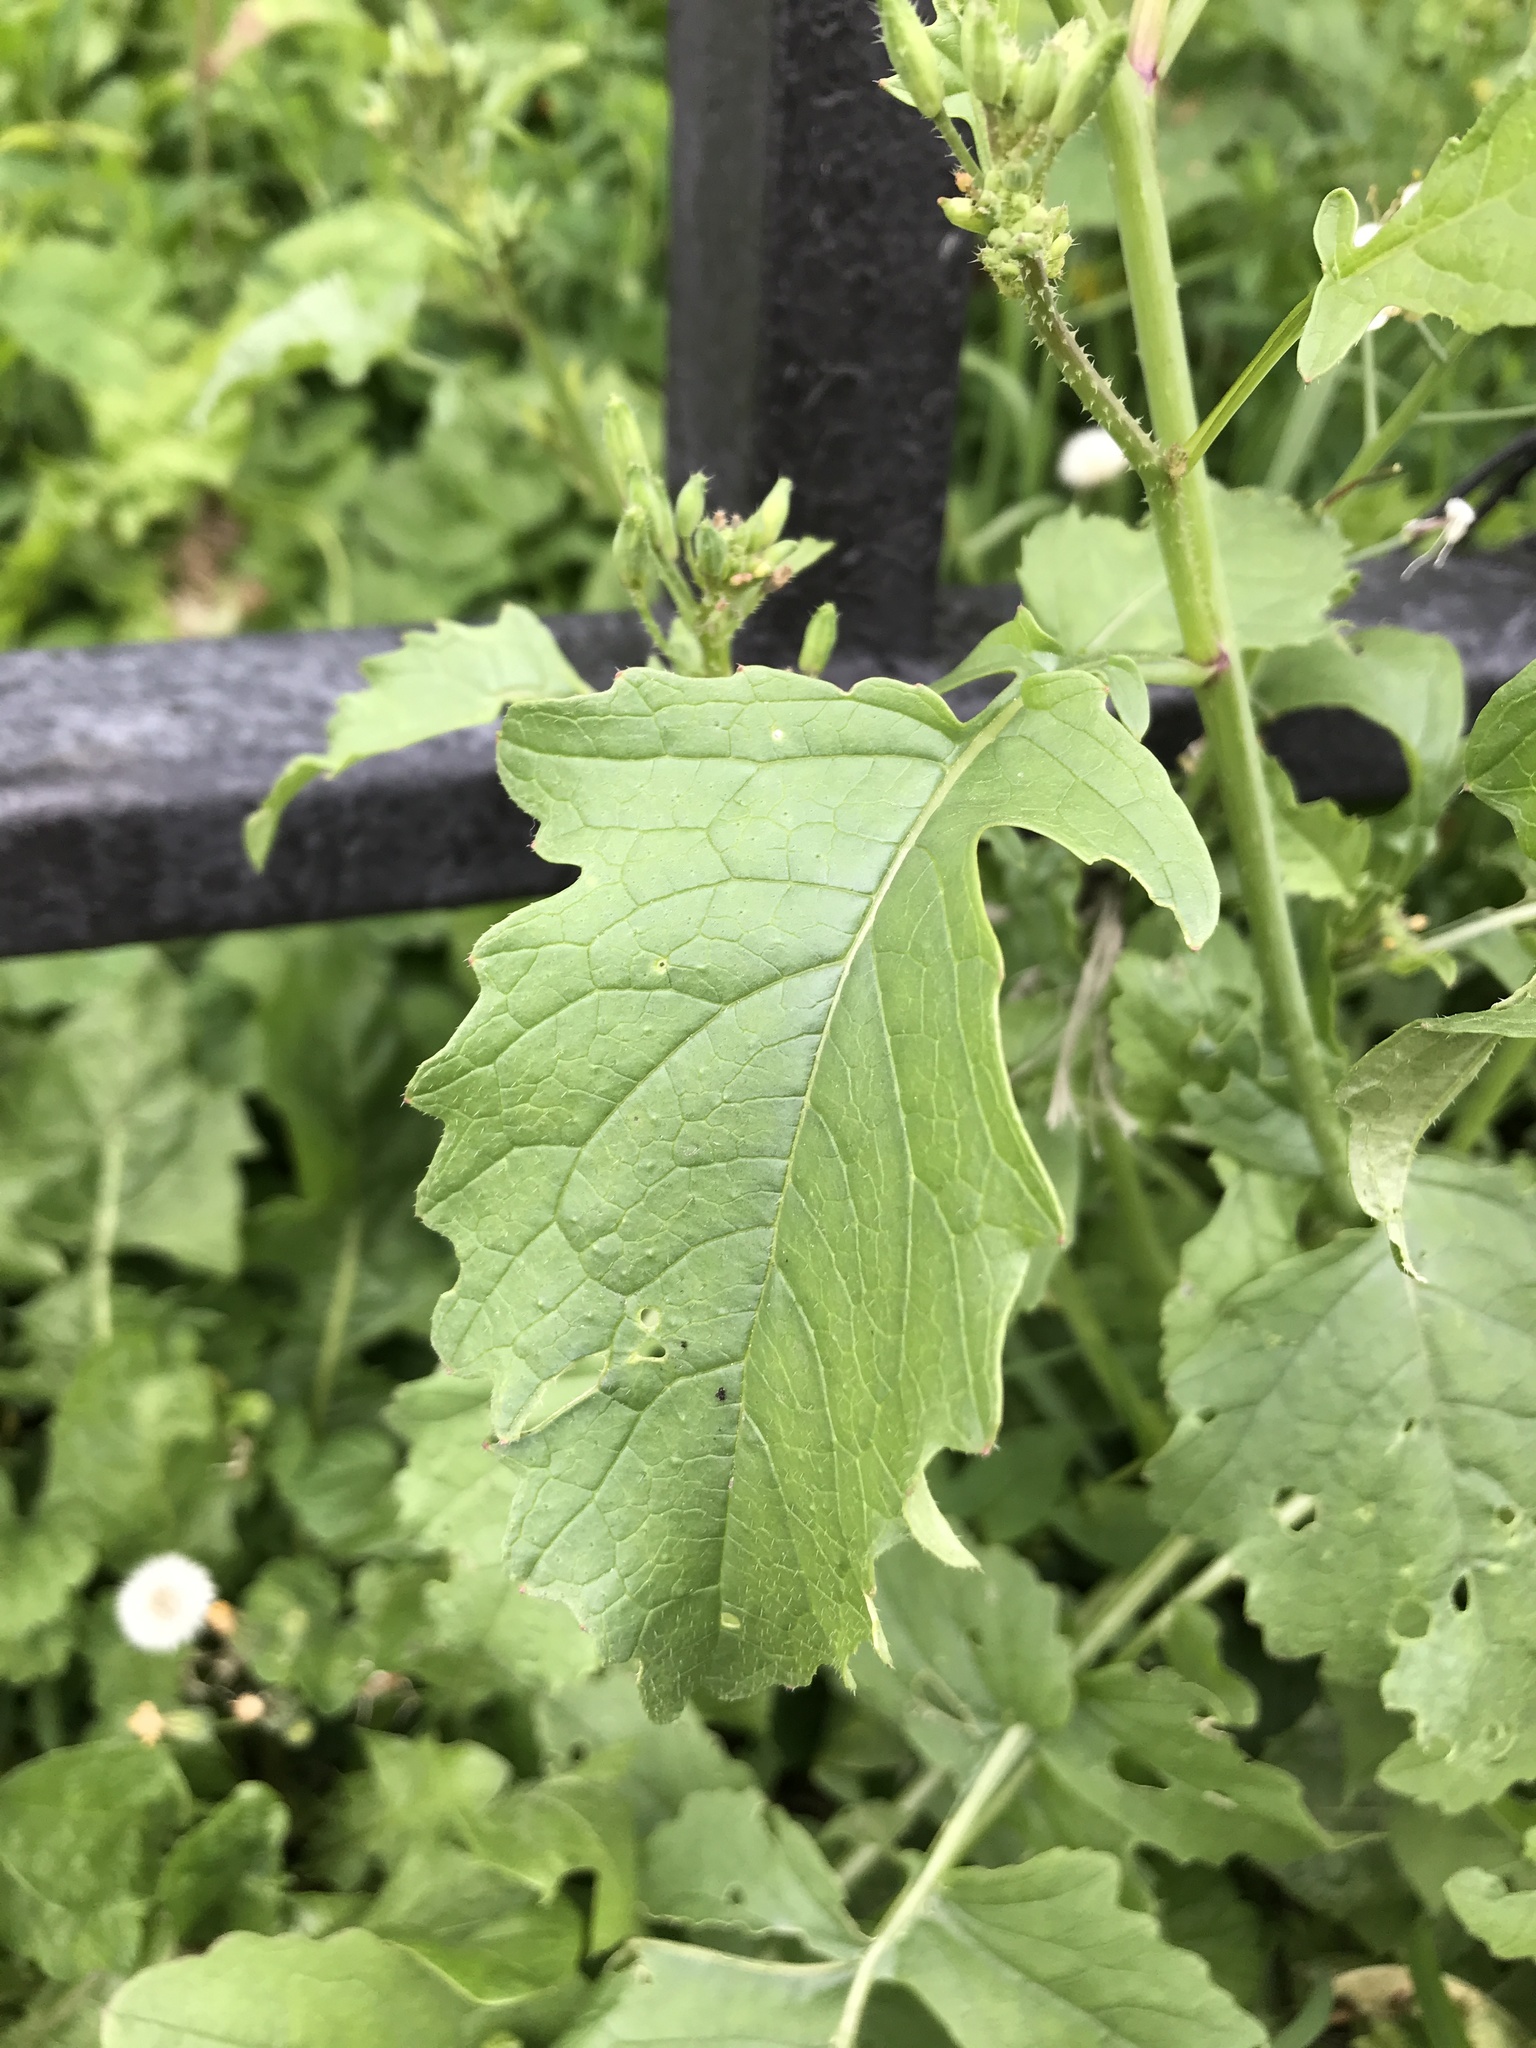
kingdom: Plantae
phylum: Tracheophyta
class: Magnoliopsida
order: Brassicales
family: Brassicaceae
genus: Raphanus
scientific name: Raphanus raphanistrum
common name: Wild radish
